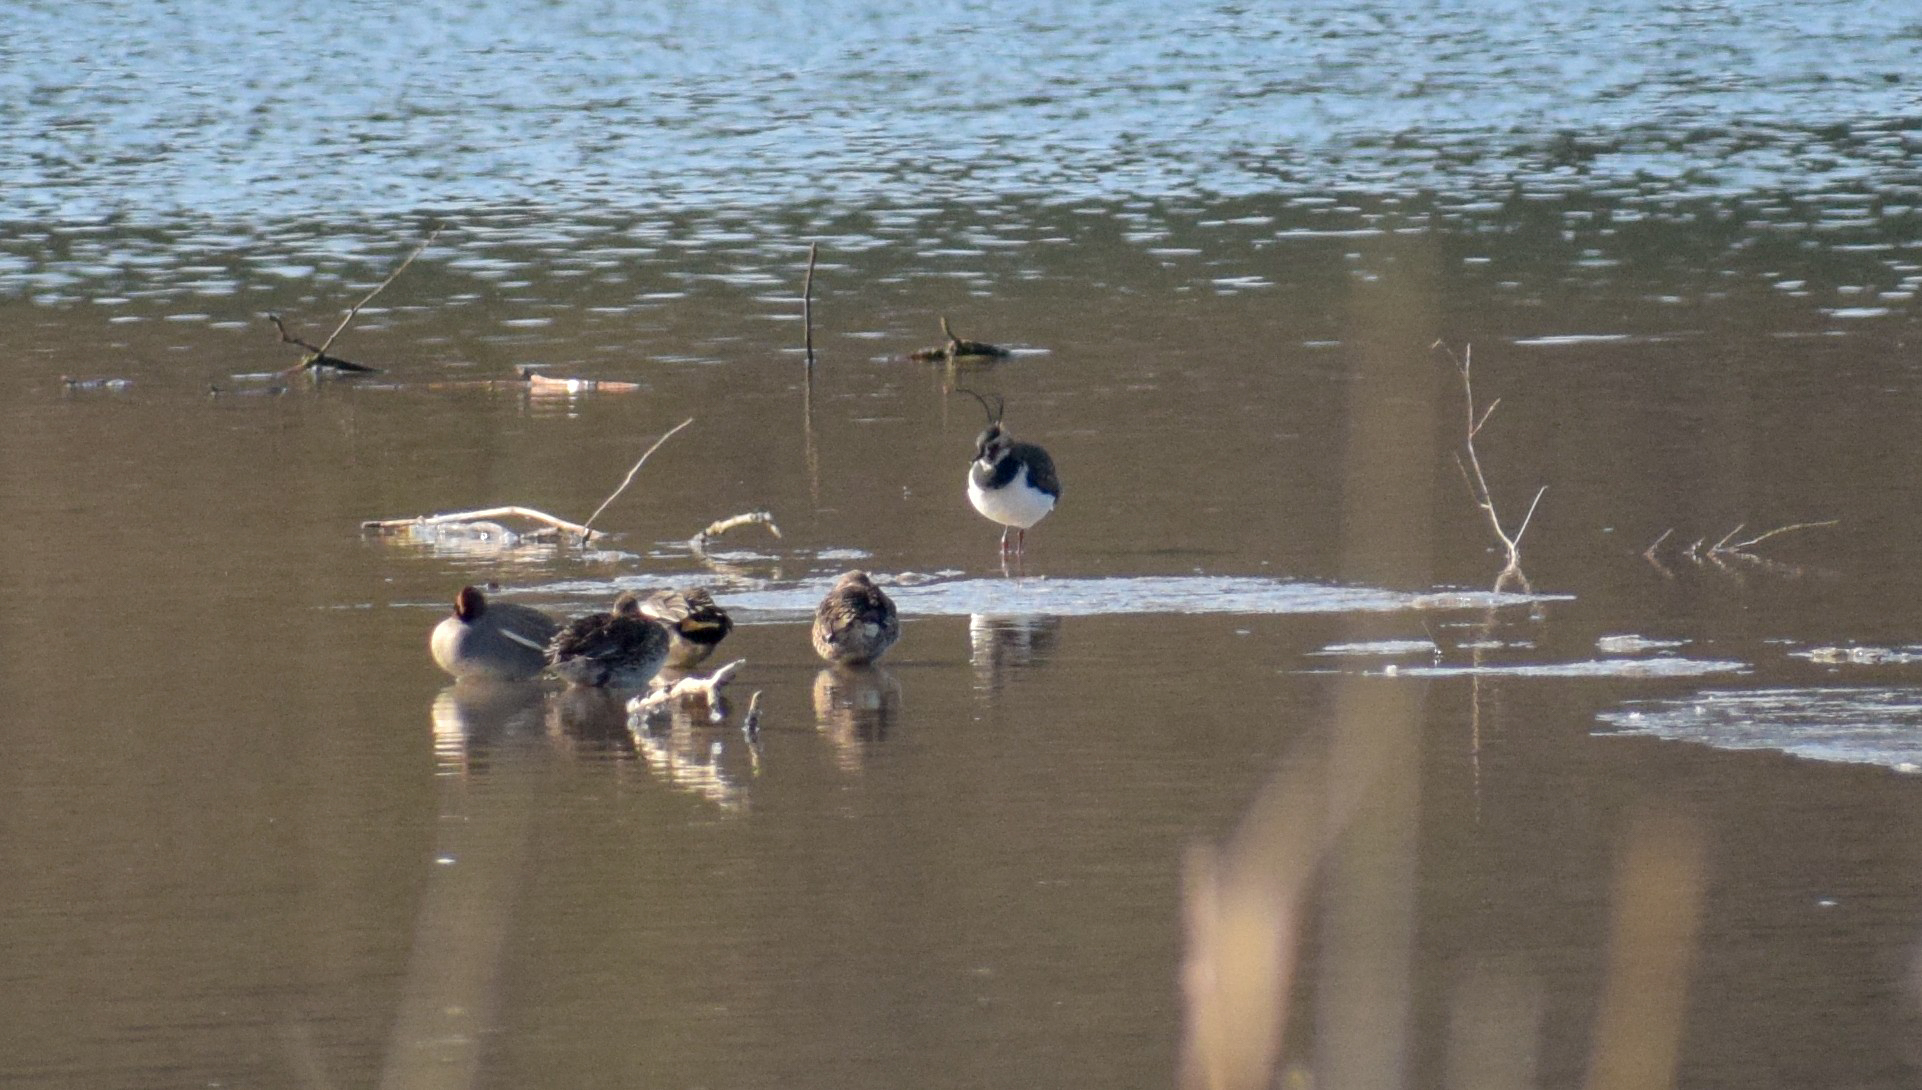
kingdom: Animalia
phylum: Chordata
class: Aves
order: Anseriformes
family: Anatidae
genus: Anas
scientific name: Anas crecca
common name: Eurasian teal
